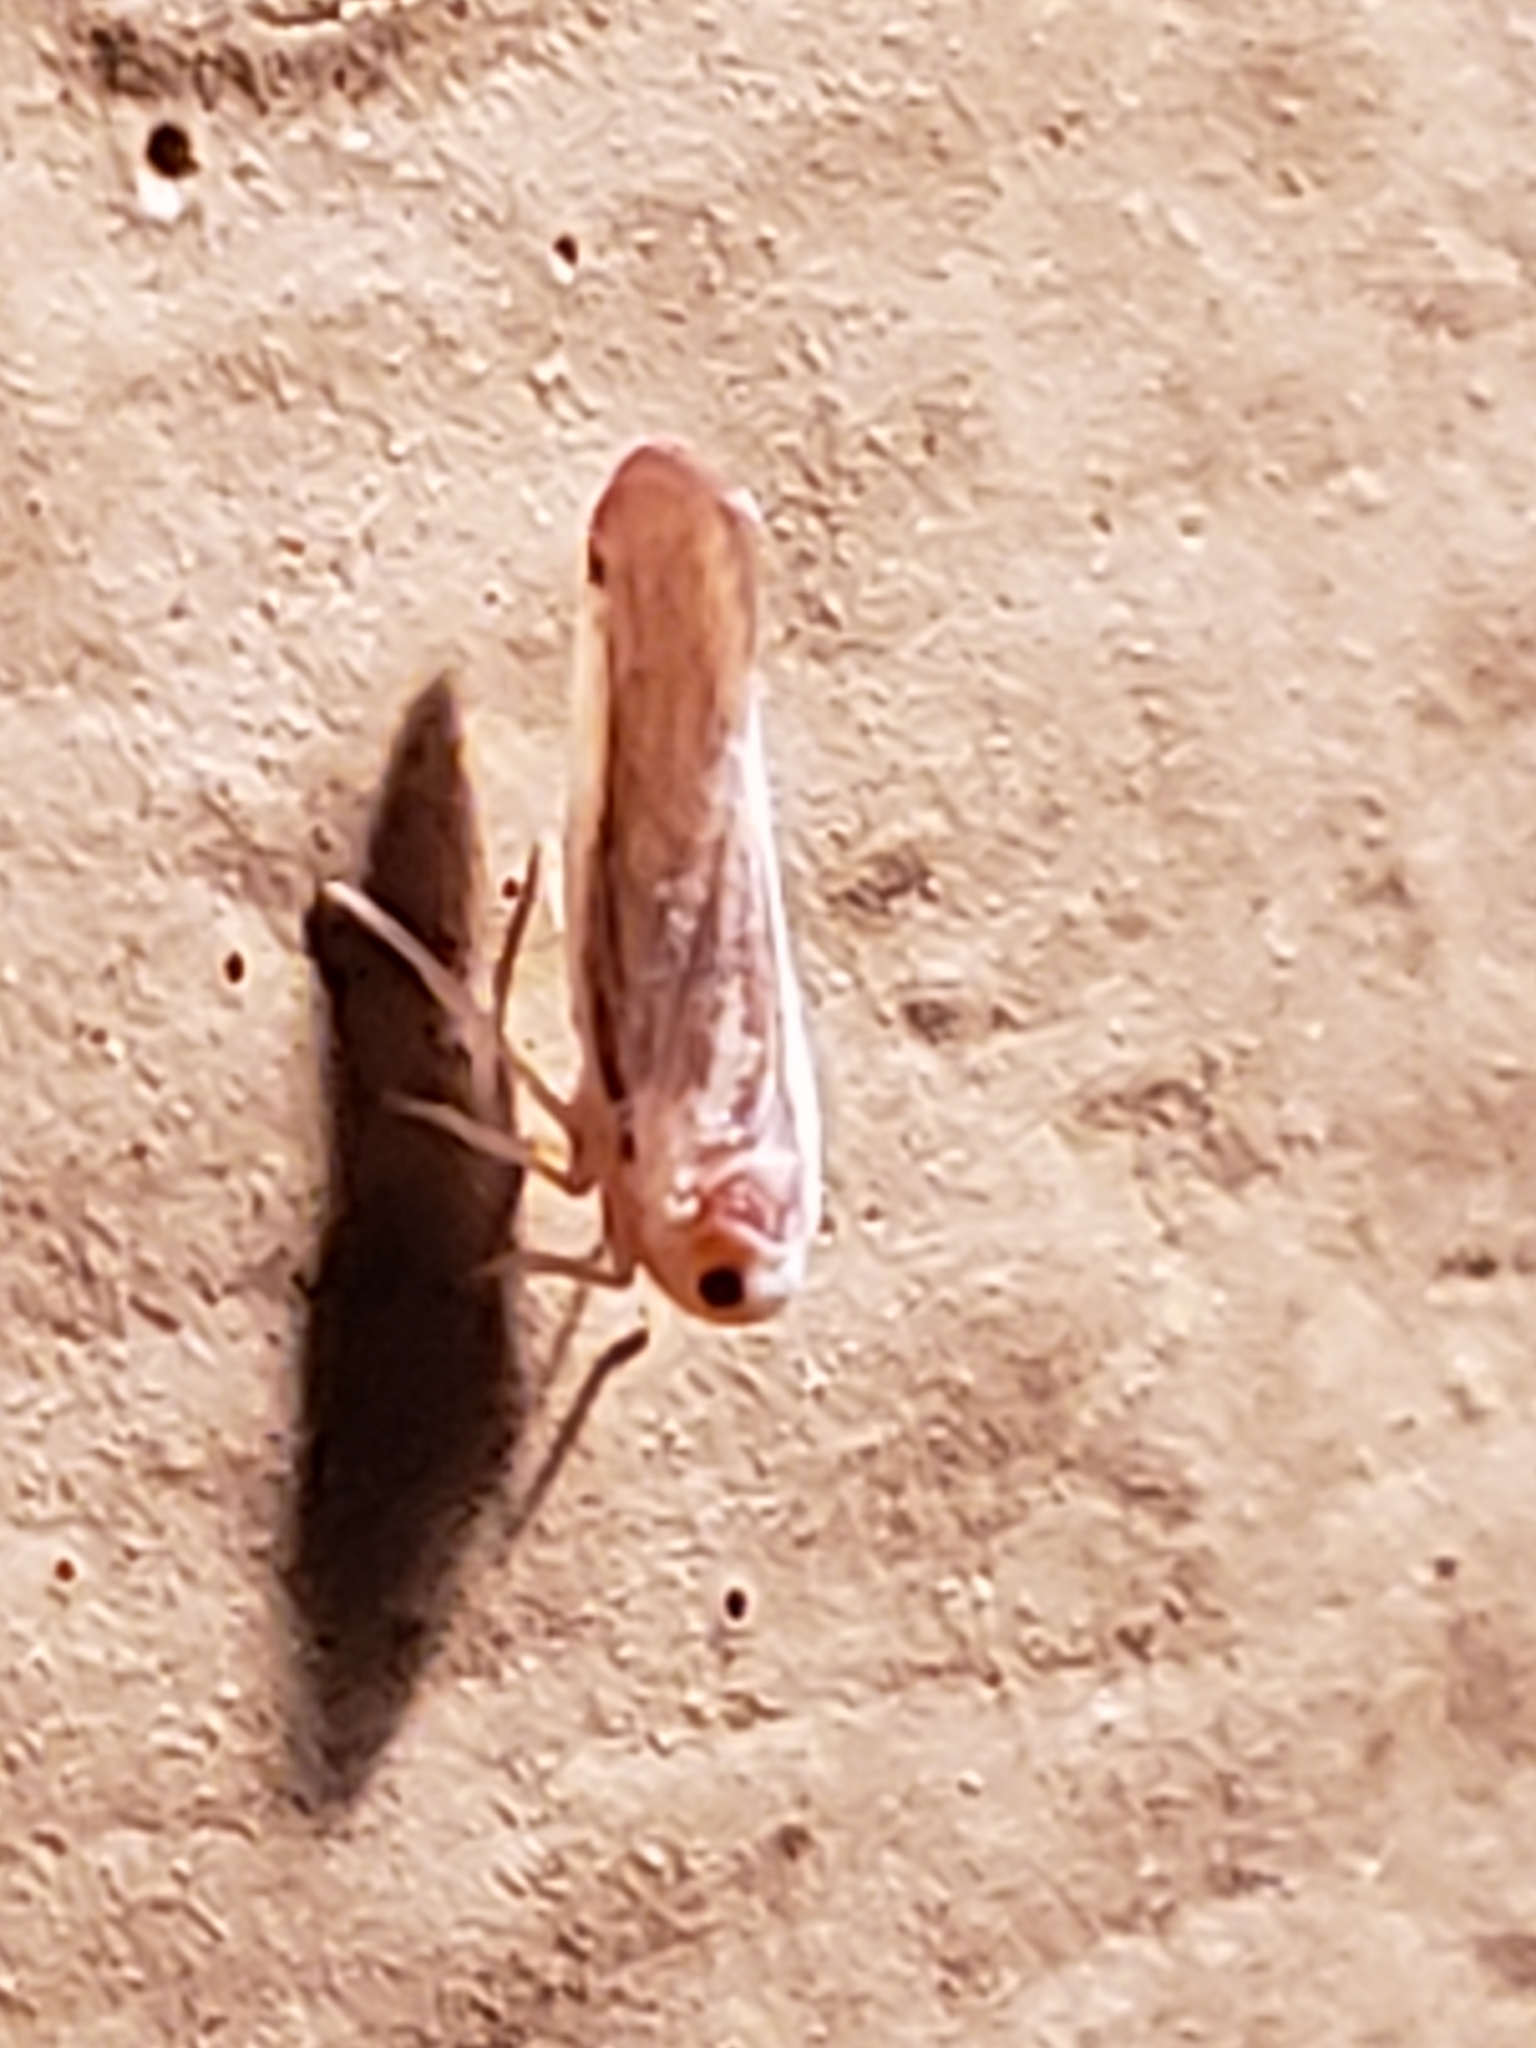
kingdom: Animalia
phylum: Arthropoda
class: Insecta
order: Hemiptera
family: Derbidae
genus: Omolicna
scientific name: Omolicna uhleri
